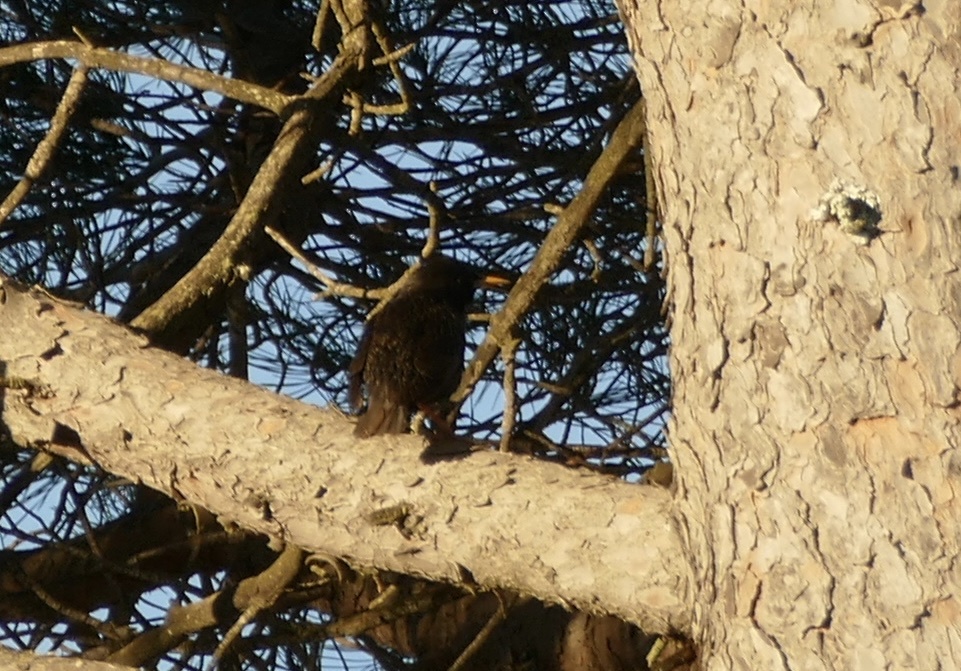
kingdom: Animalia
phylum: Chordata
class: Aves
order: Passeriformes
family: Sturnidae
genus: Sturnus
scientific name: Sturnus unicolor
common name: Spotless starling
